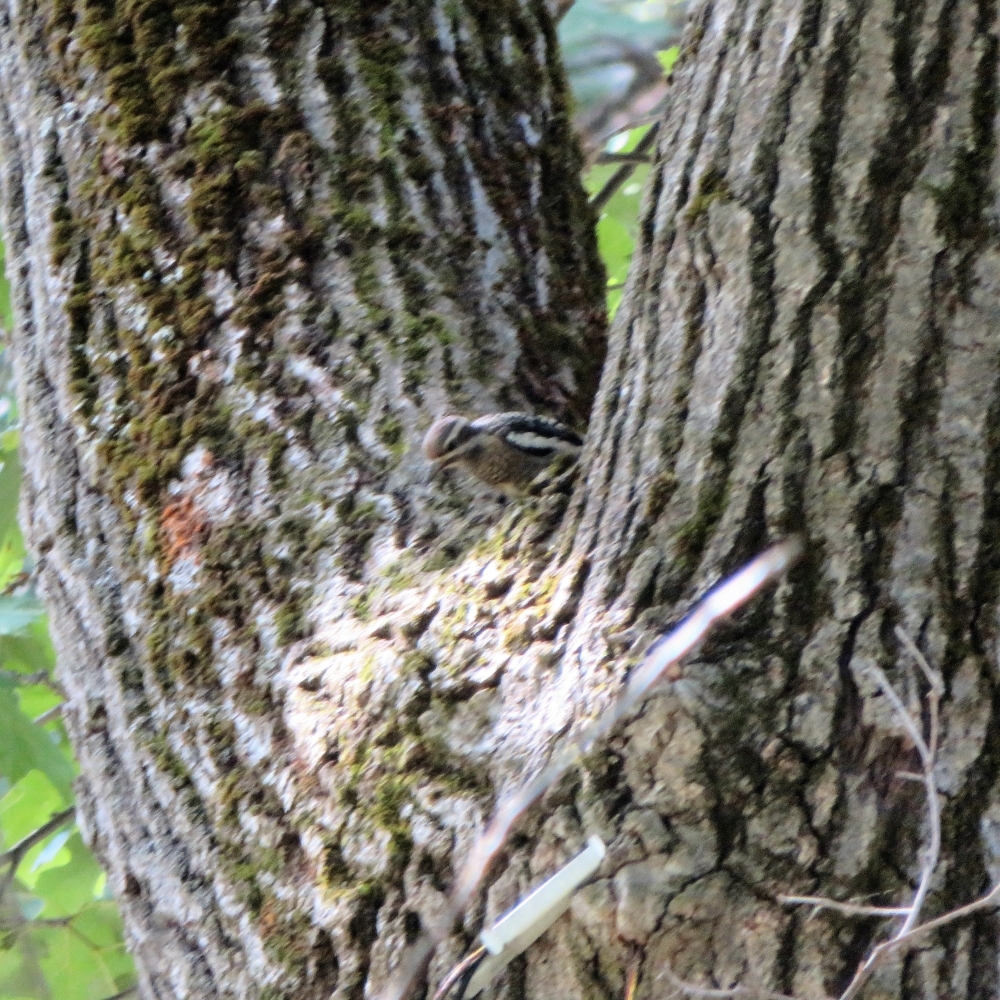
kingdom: Animalia
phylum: Chordata
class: Aves
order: Piciformes
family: Picidae
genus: Sphyrapicus
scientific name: Sphyrapicus varius
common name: Yellow-bellied sapsucker
